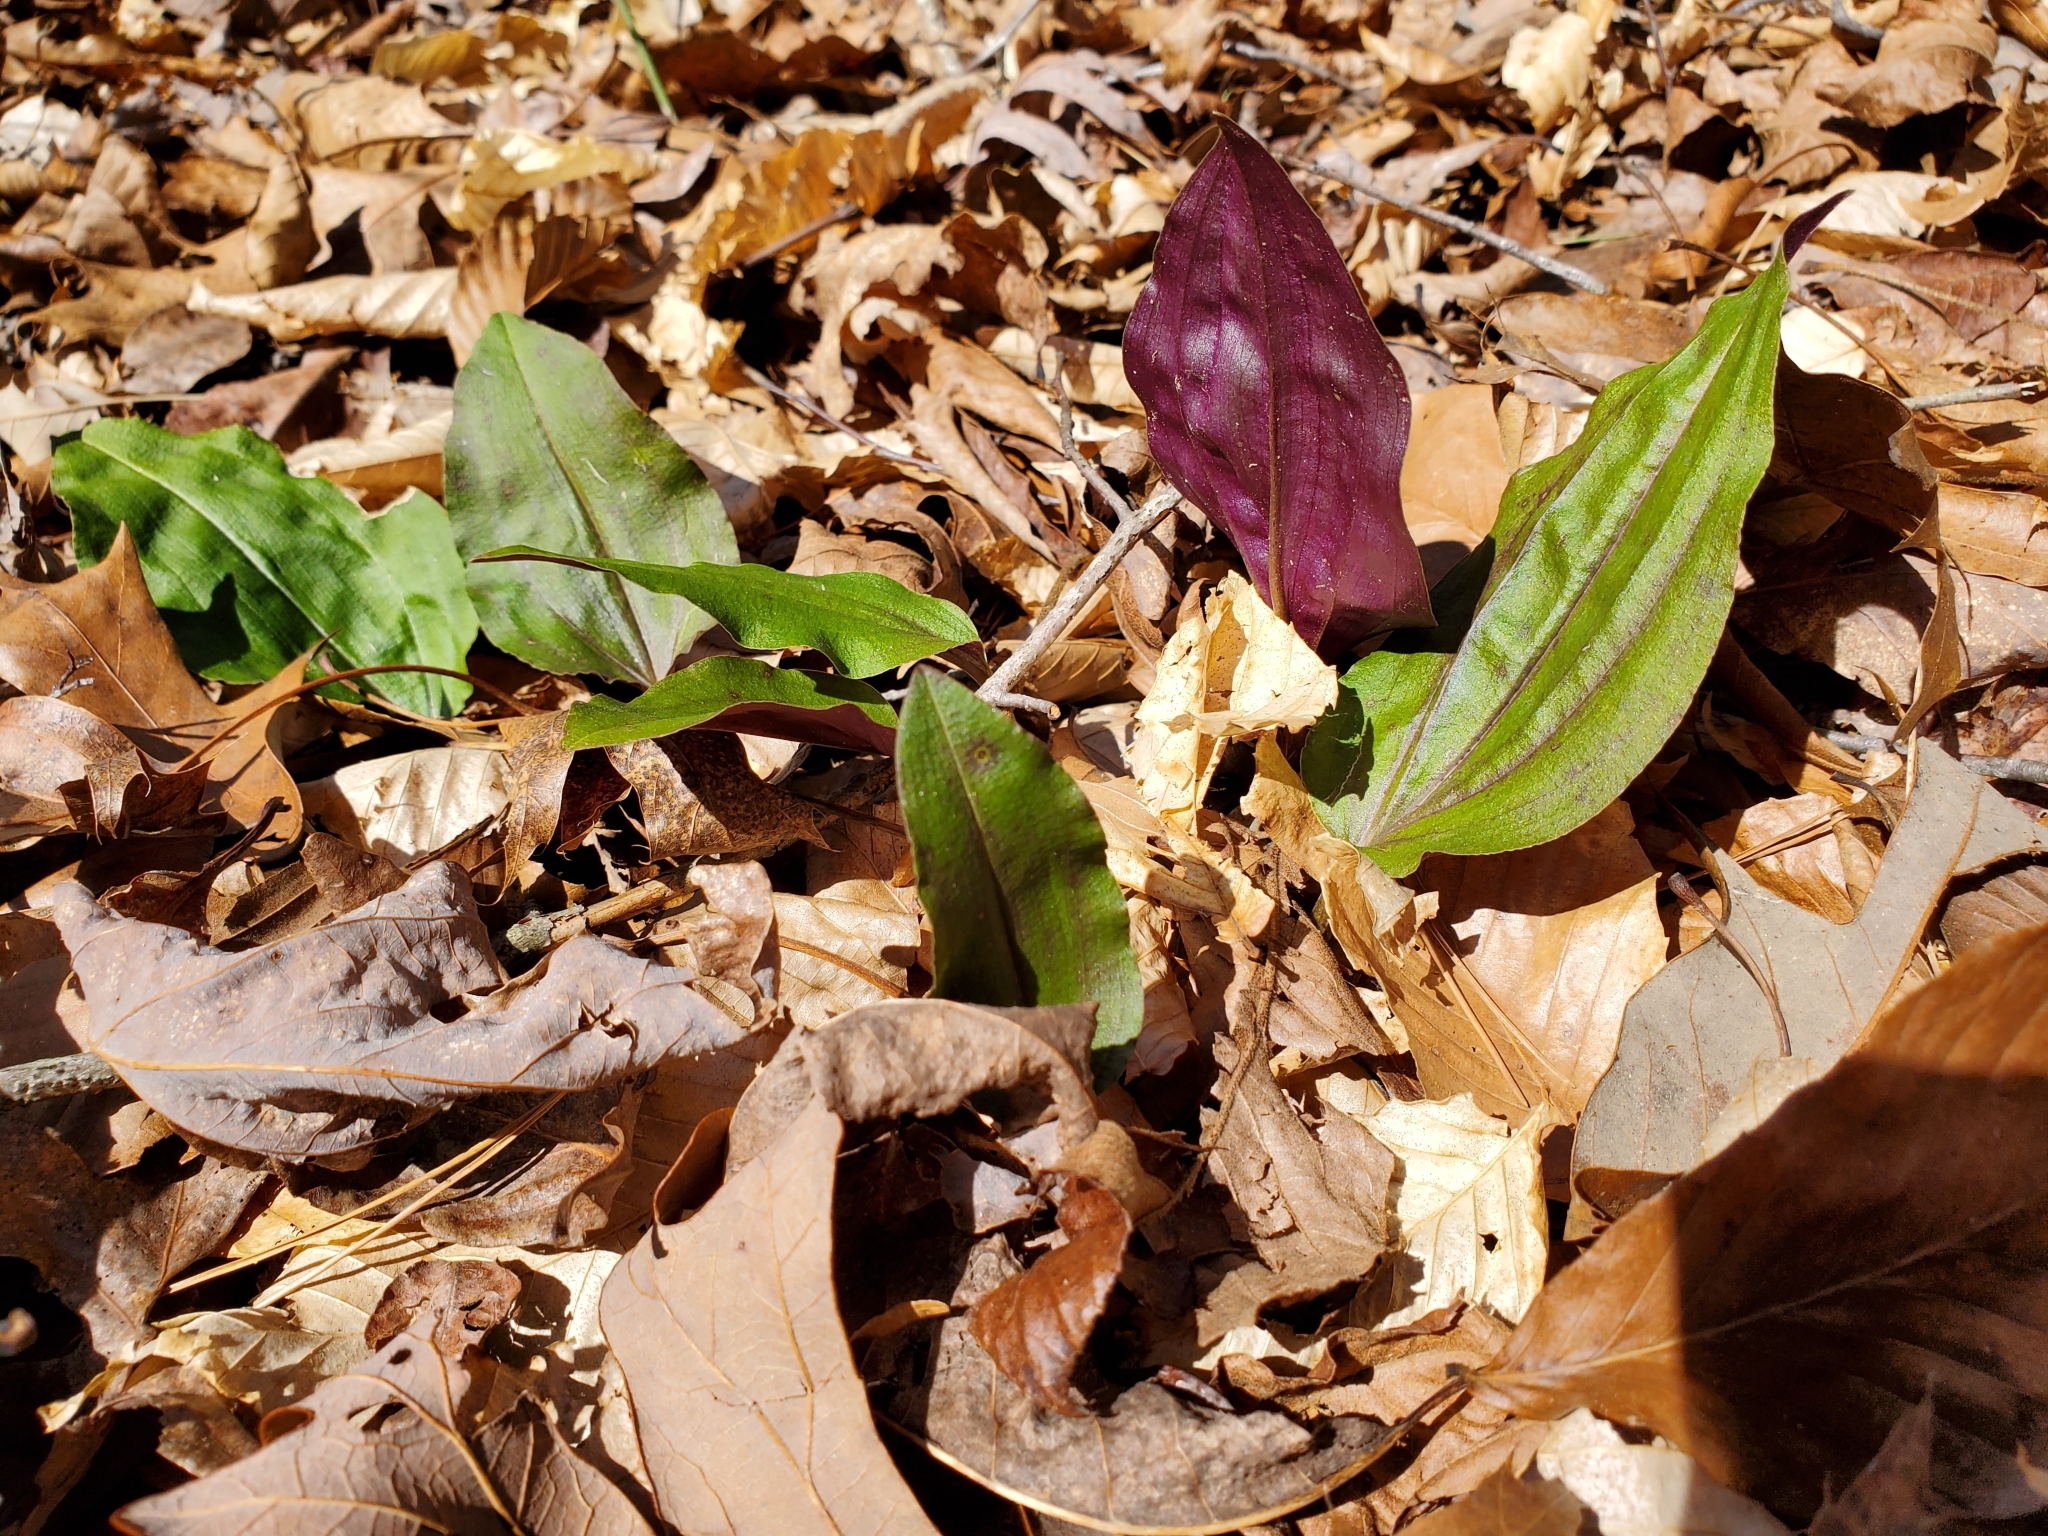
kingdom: Plantae
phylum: Tracheophyta
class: Liliopsida
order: Asparagales
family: Orchidaceae
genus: Tipularia
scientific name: Tipularia discolor
